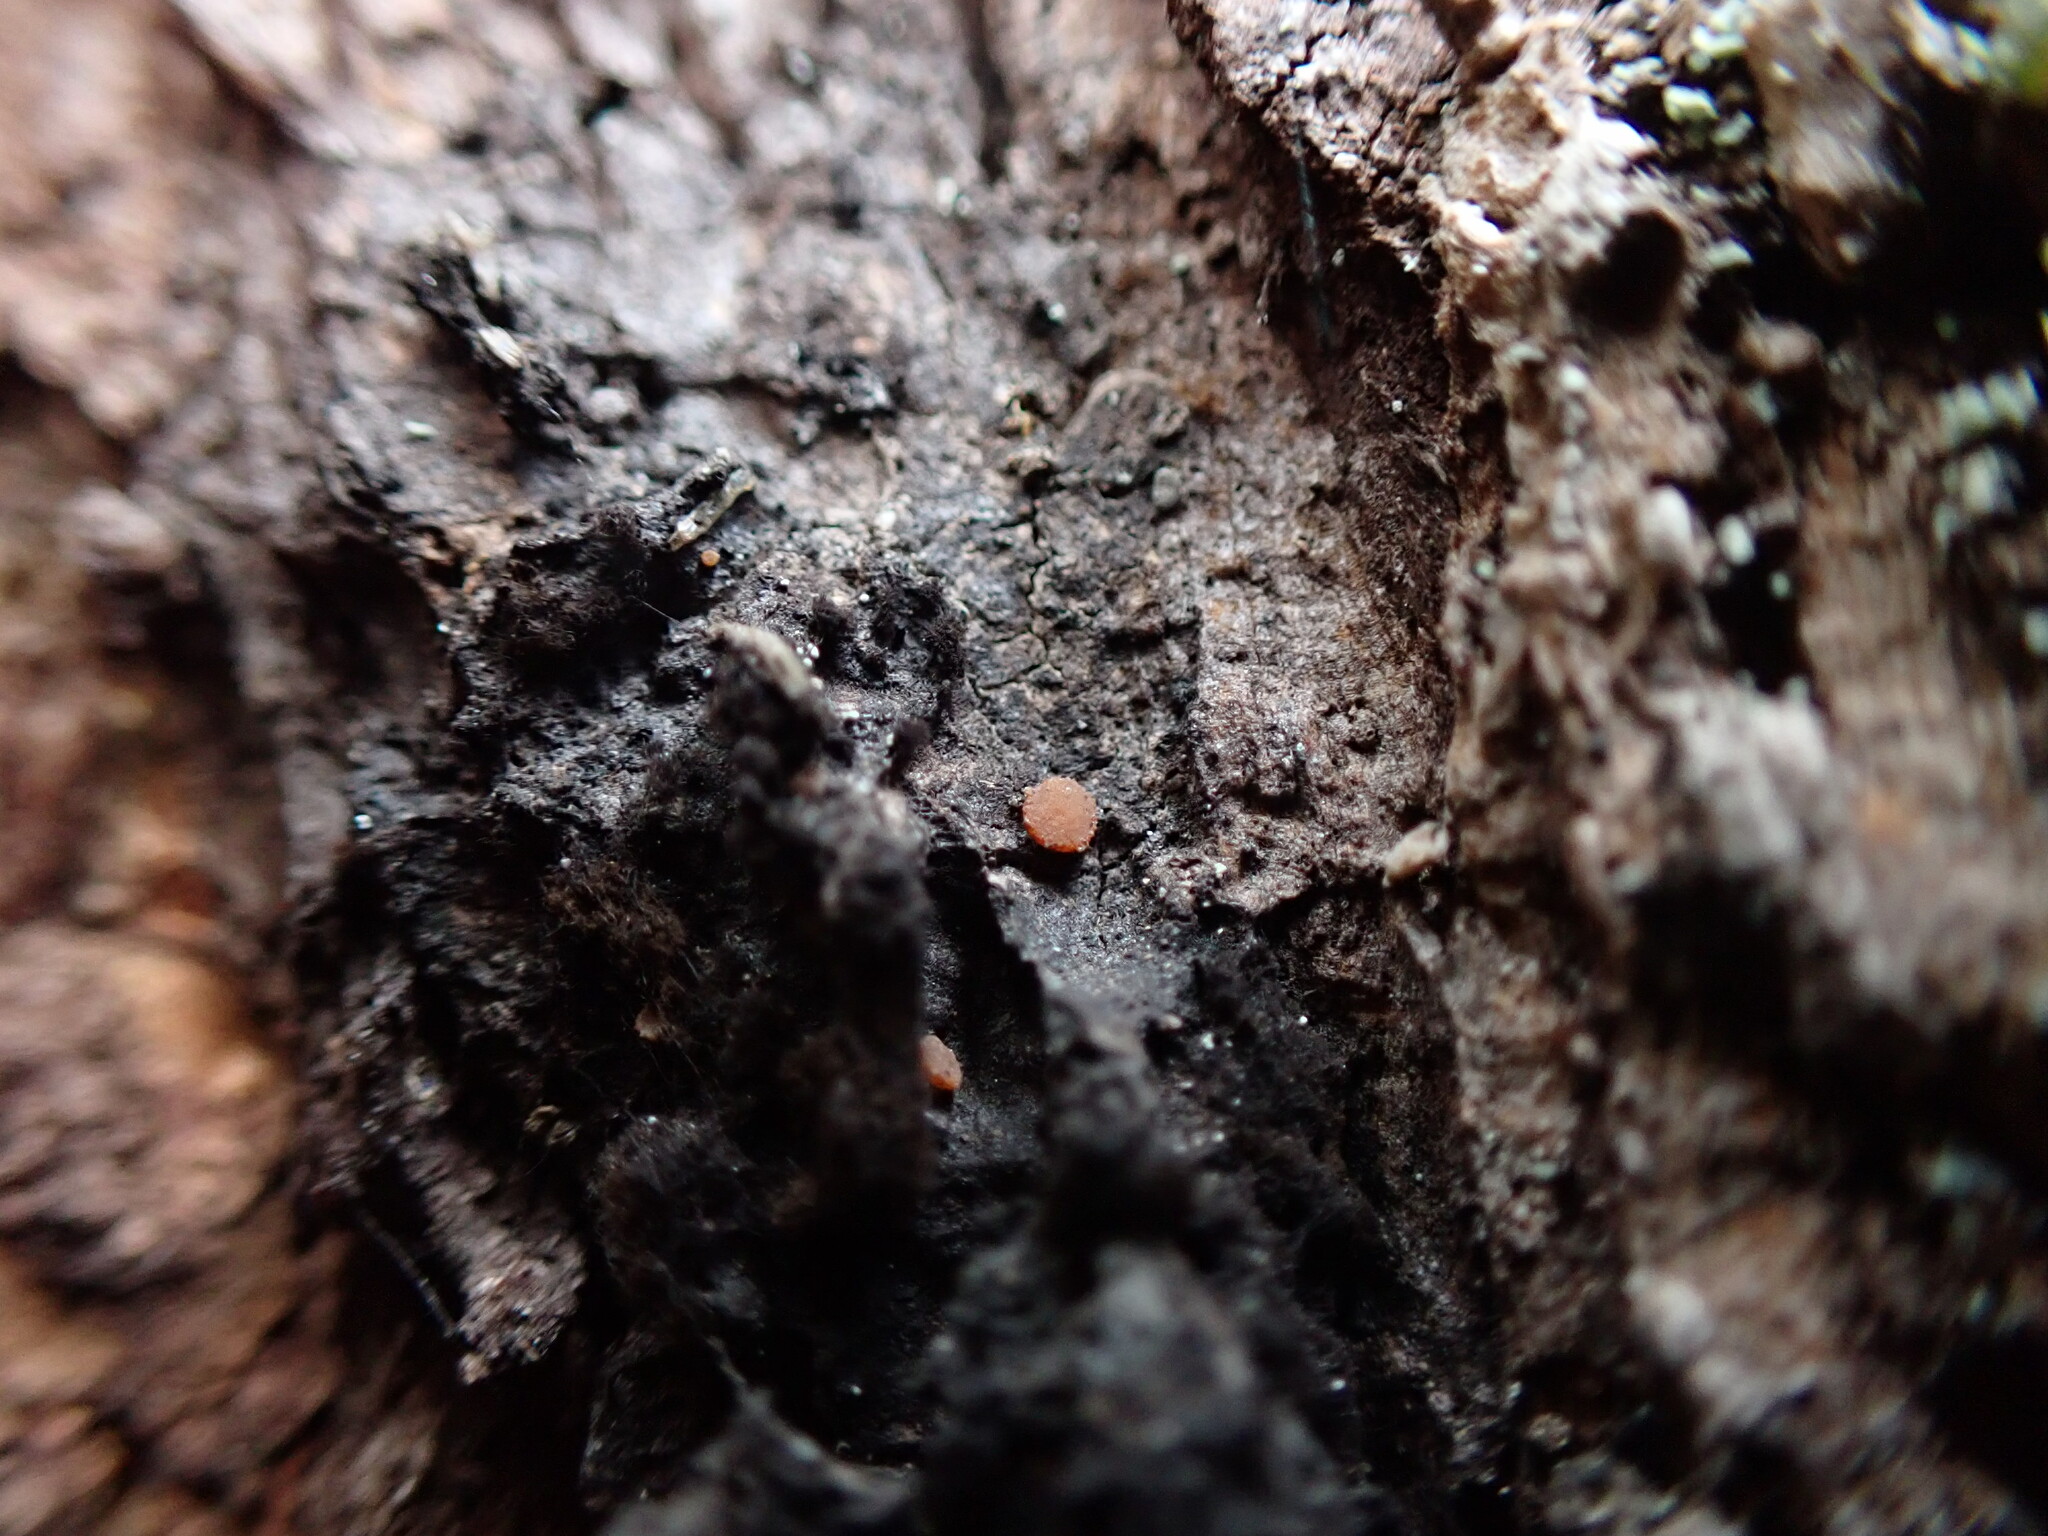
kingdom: Fungi
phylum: Ascomycota
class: Sareomycetes
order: Sareales
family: Sareaceae
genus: Sarea
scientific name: Sarea resinae
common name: Sarea lichen
